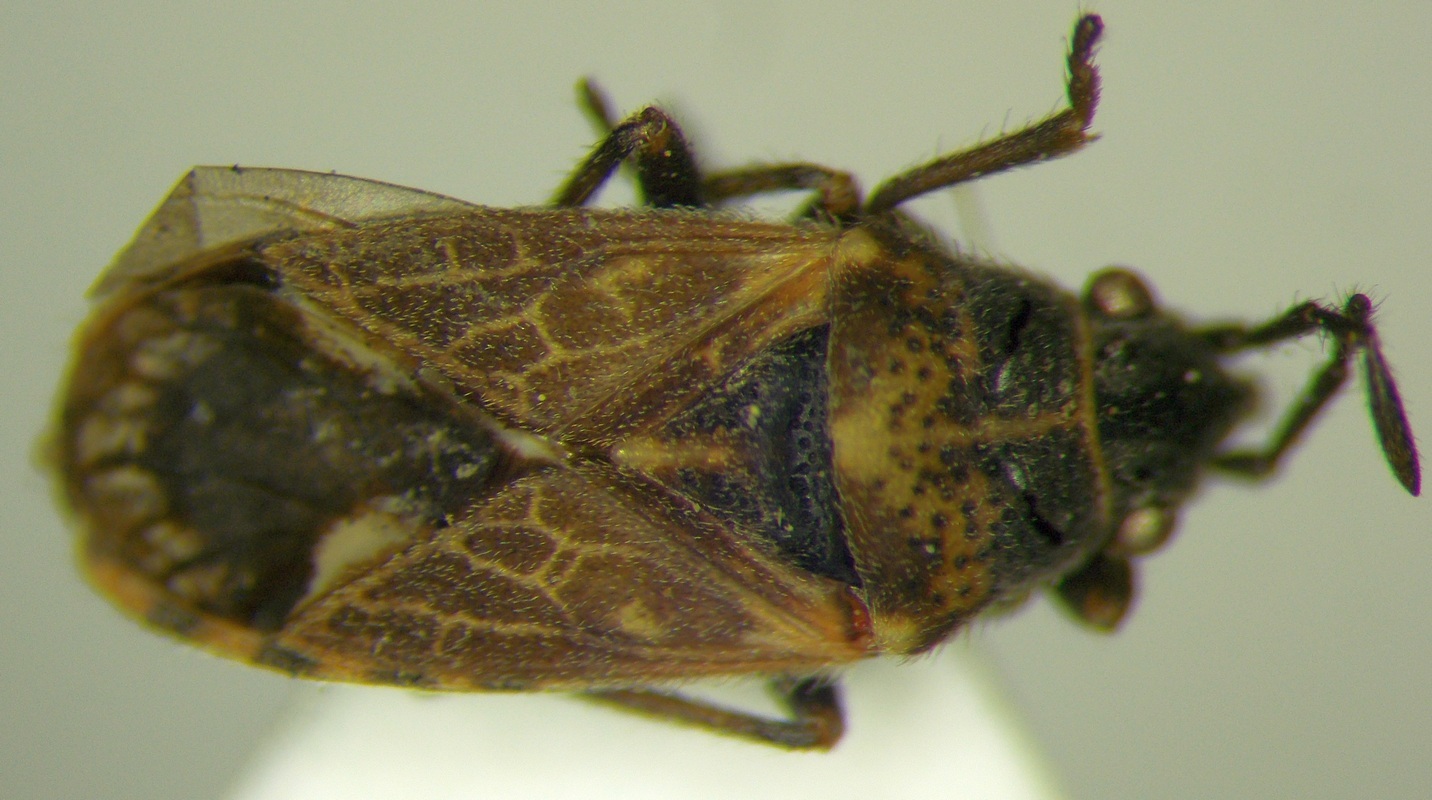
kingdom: Animalia
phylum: Arthropoda
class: Insecta
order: Hemiptera
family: Lygaeidae
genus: Lygaeosoma
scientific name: Lygaeosoma sardeum
